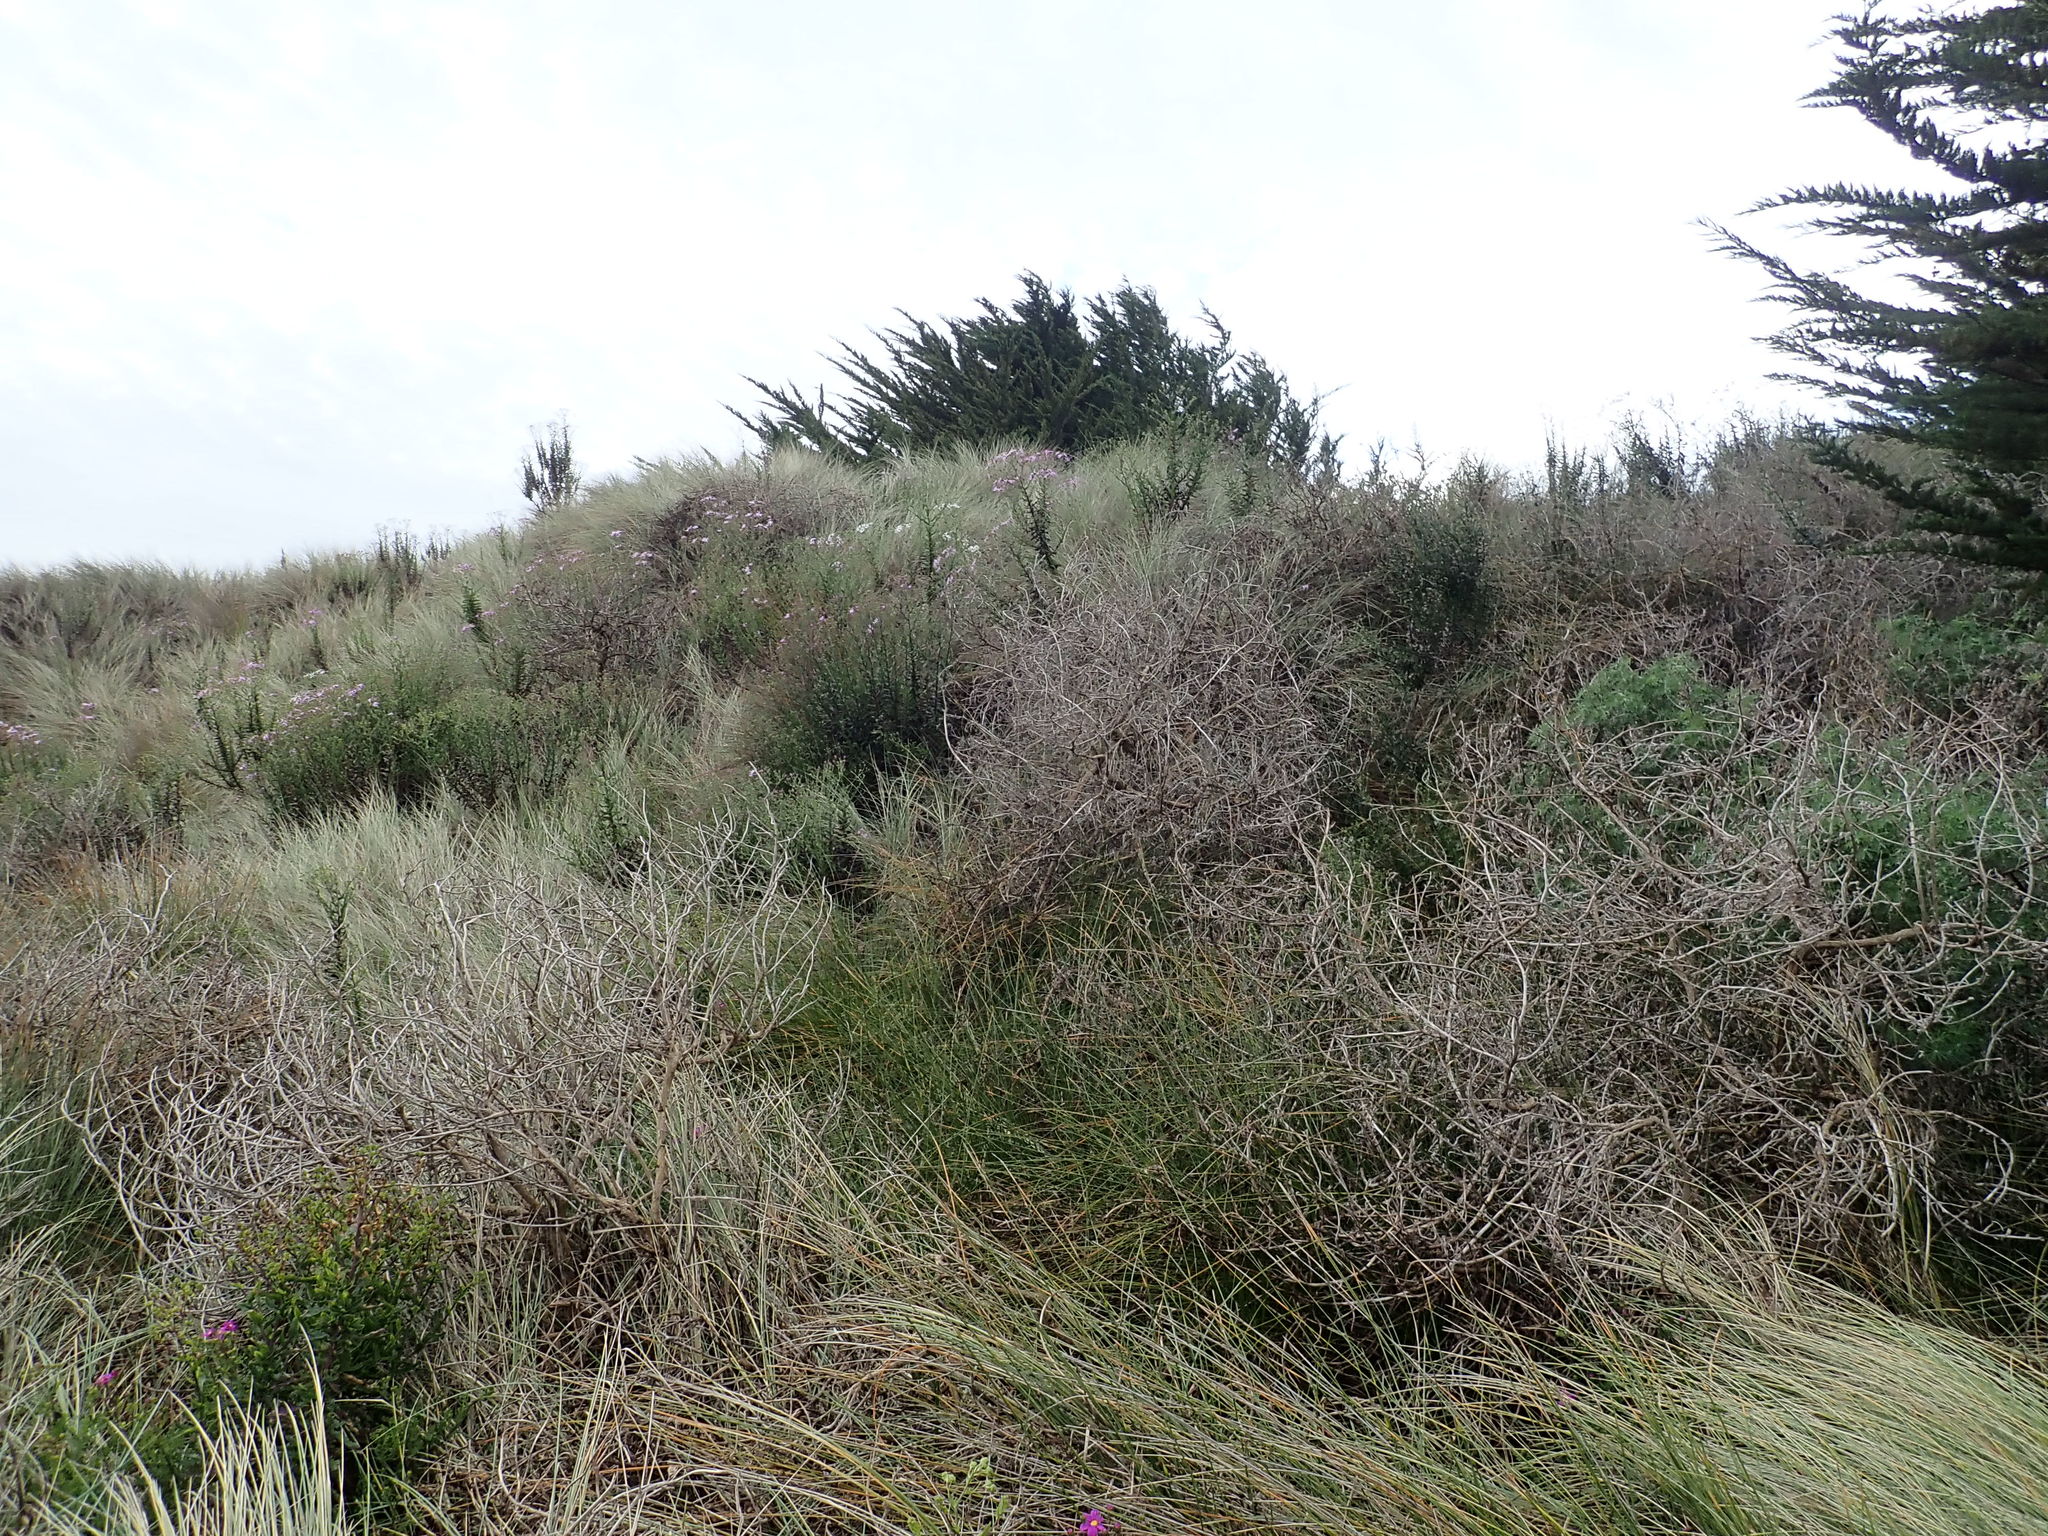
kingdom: Plantae
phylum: Tracheophyta
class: Magnoliopsida
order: Asterales
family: Asteraceae
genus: Senecio
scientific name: Senecio glastifolius
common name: Woad-leaved ragwort
